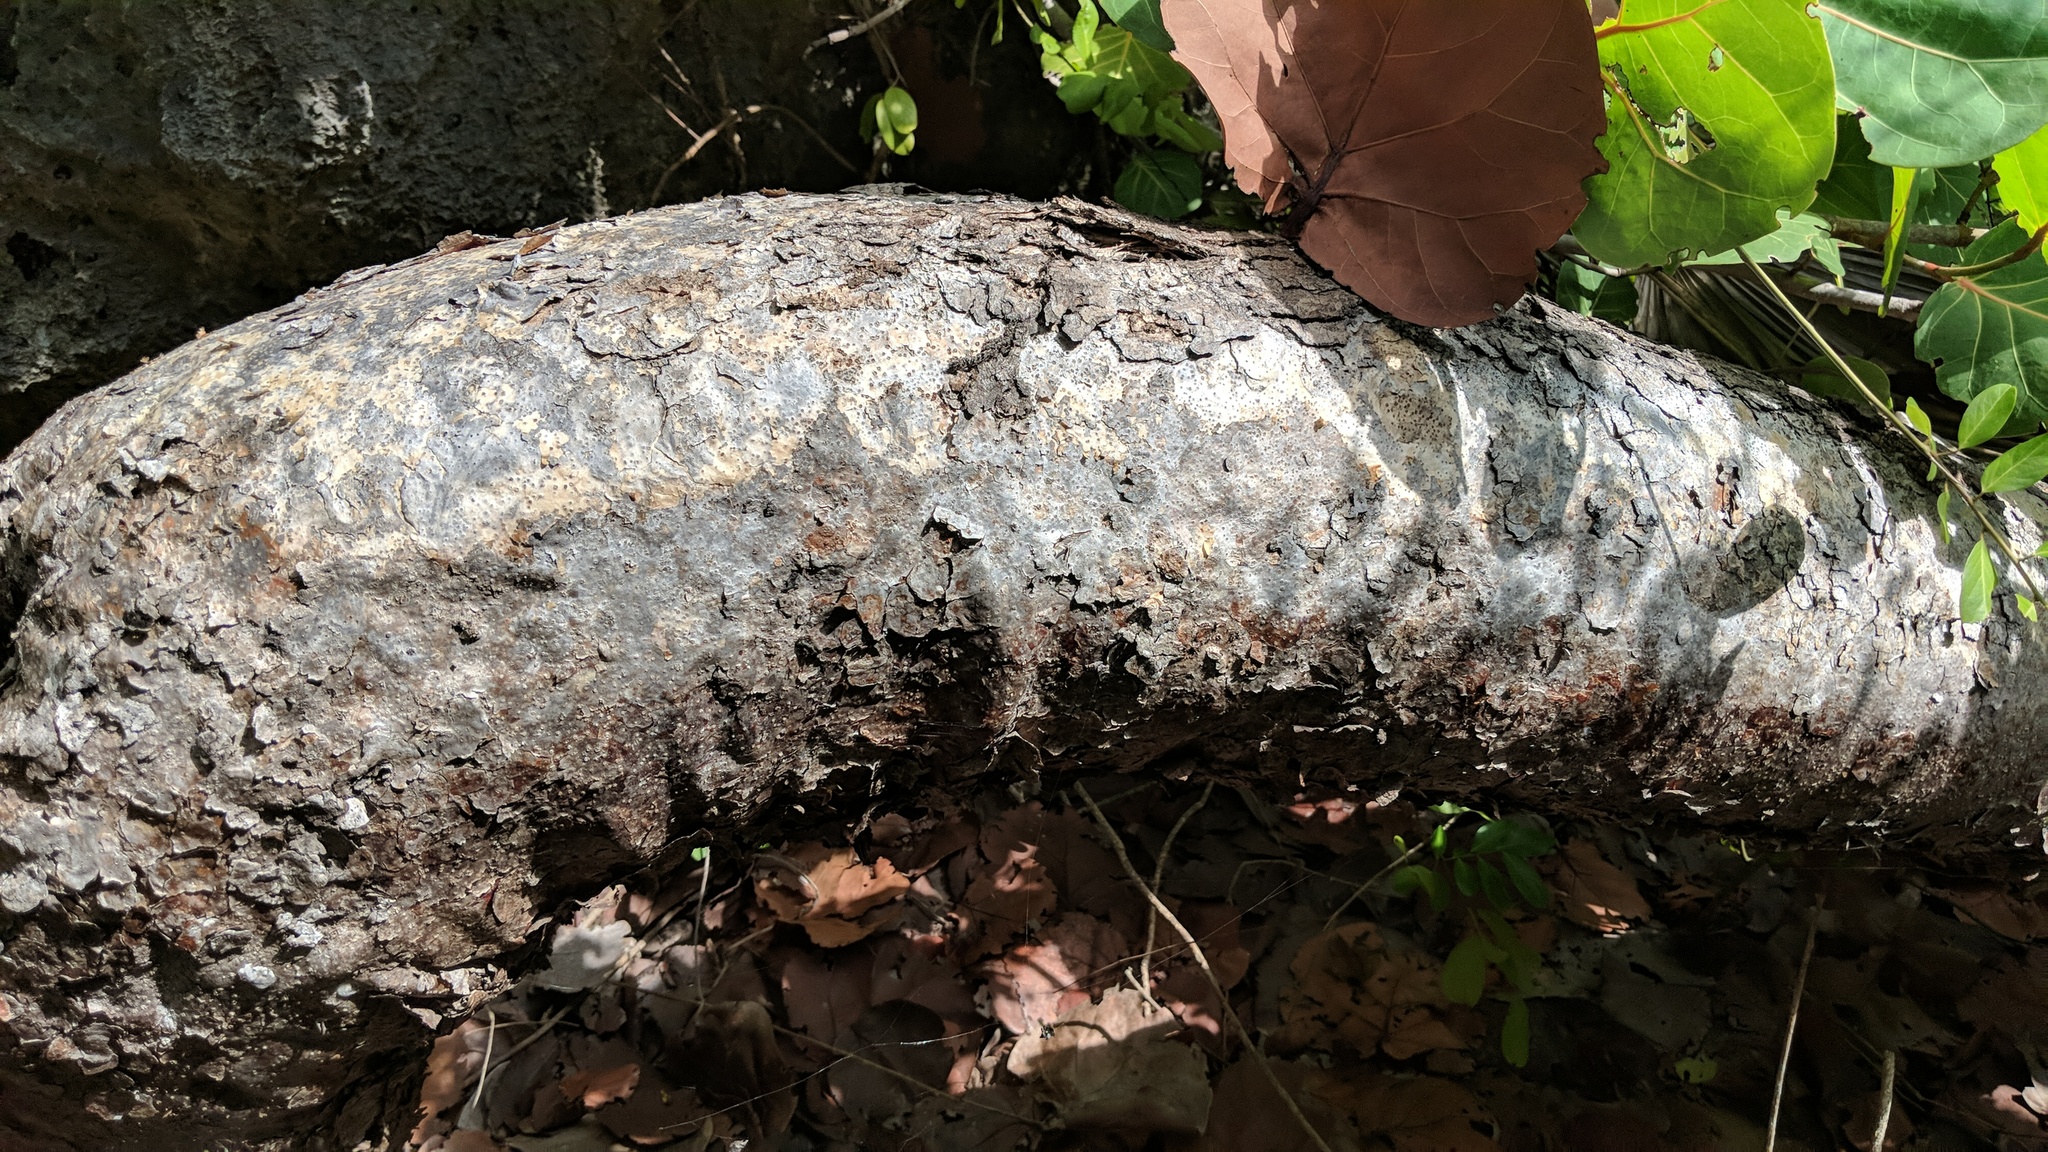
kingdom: Plantae
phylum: Tracheophyta
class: Magnoliopsida
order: Sapindales
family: Burseraceae
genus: Bursera
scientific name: Bursera simaruba
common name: Turpentine tree
